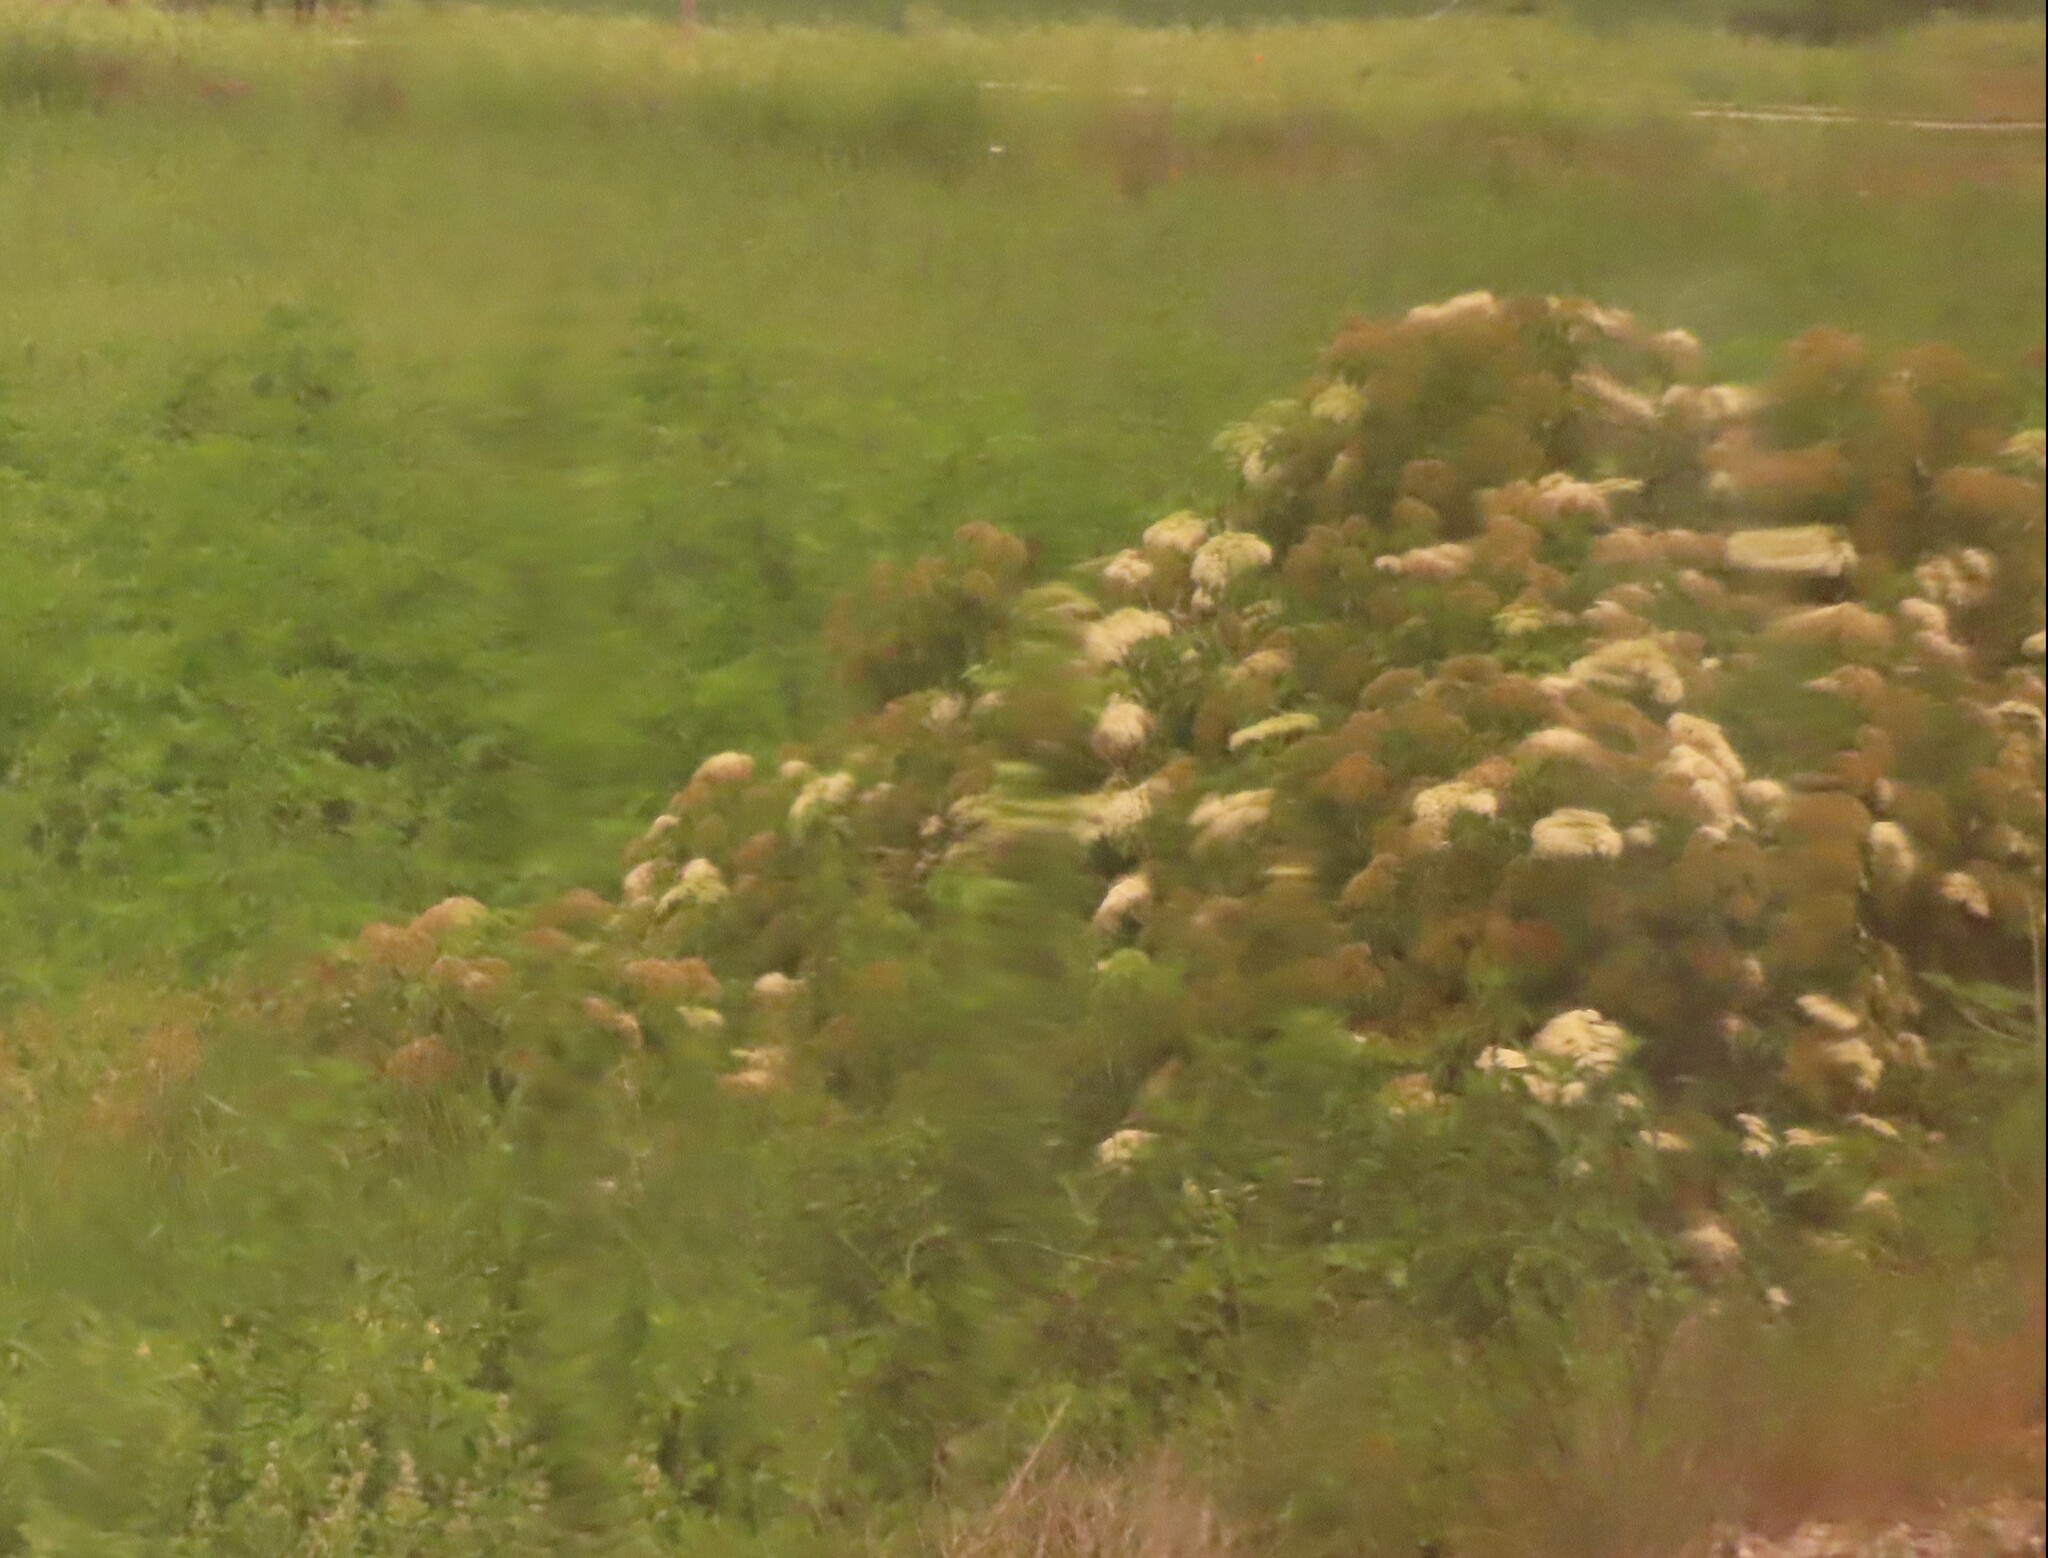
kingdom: Plantae
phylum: Tracheophyta
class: Magnoliopsida
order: Dipsacales
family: Viburnaceae
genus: Sambucus
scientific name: Sambucus canadensis
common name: American elder
